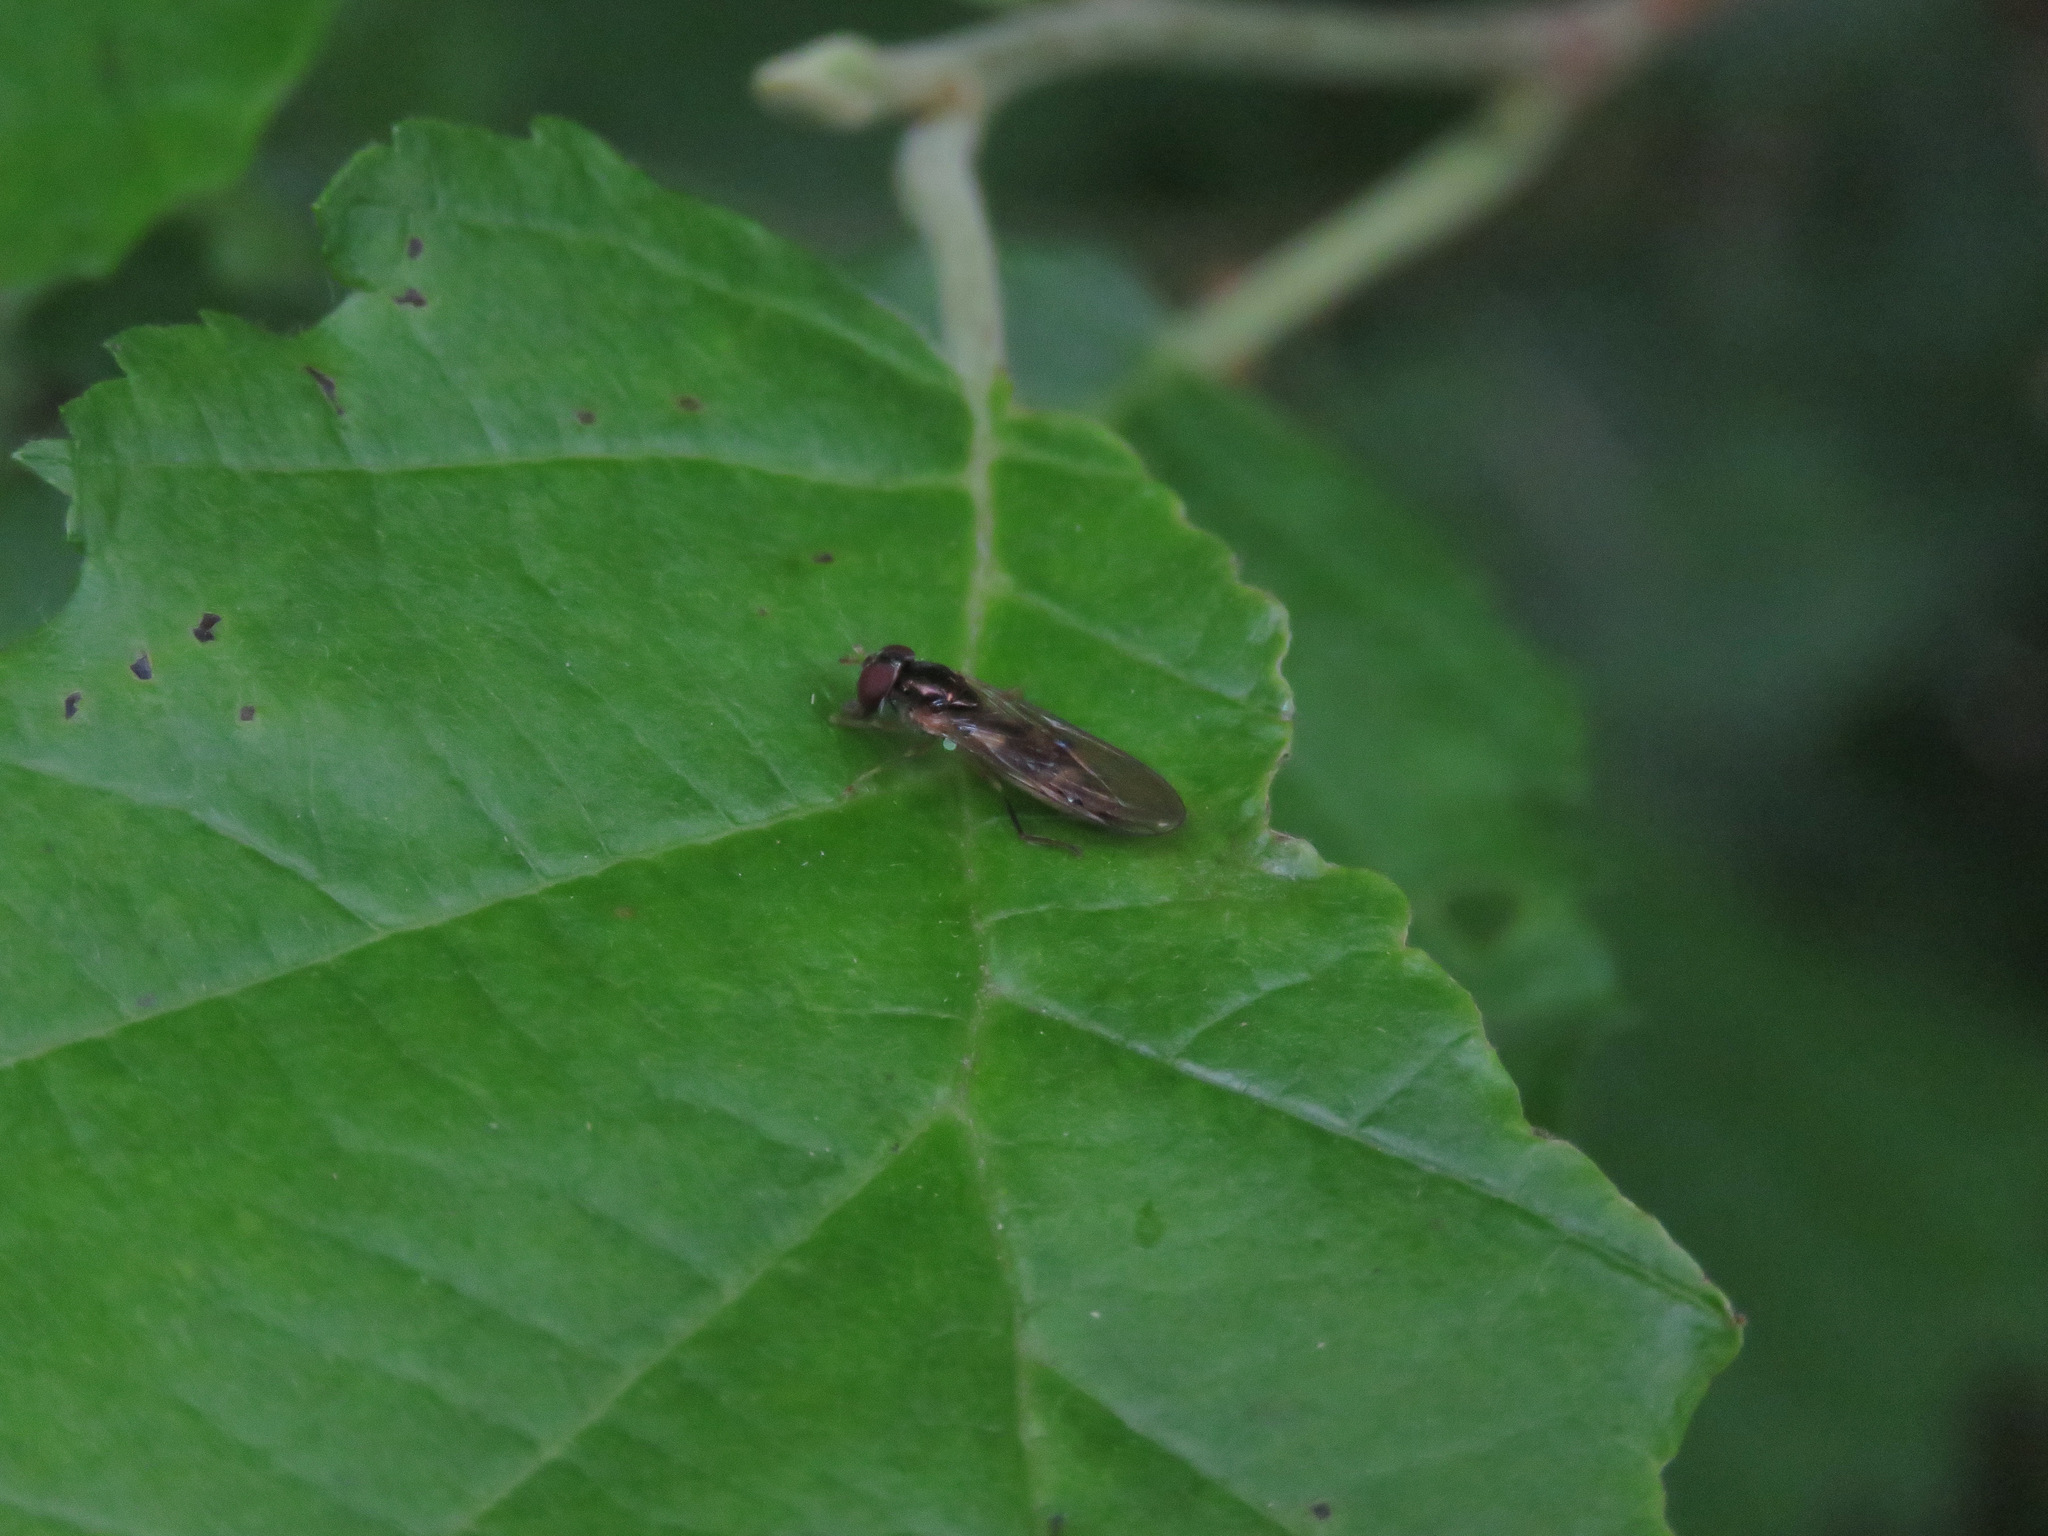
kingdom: Animalia
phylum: Arthropoda
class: Insecta
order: Diptera
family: Syrphidae
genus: Melanostoma
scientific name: Melanostoma mellina
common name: Hover fly
